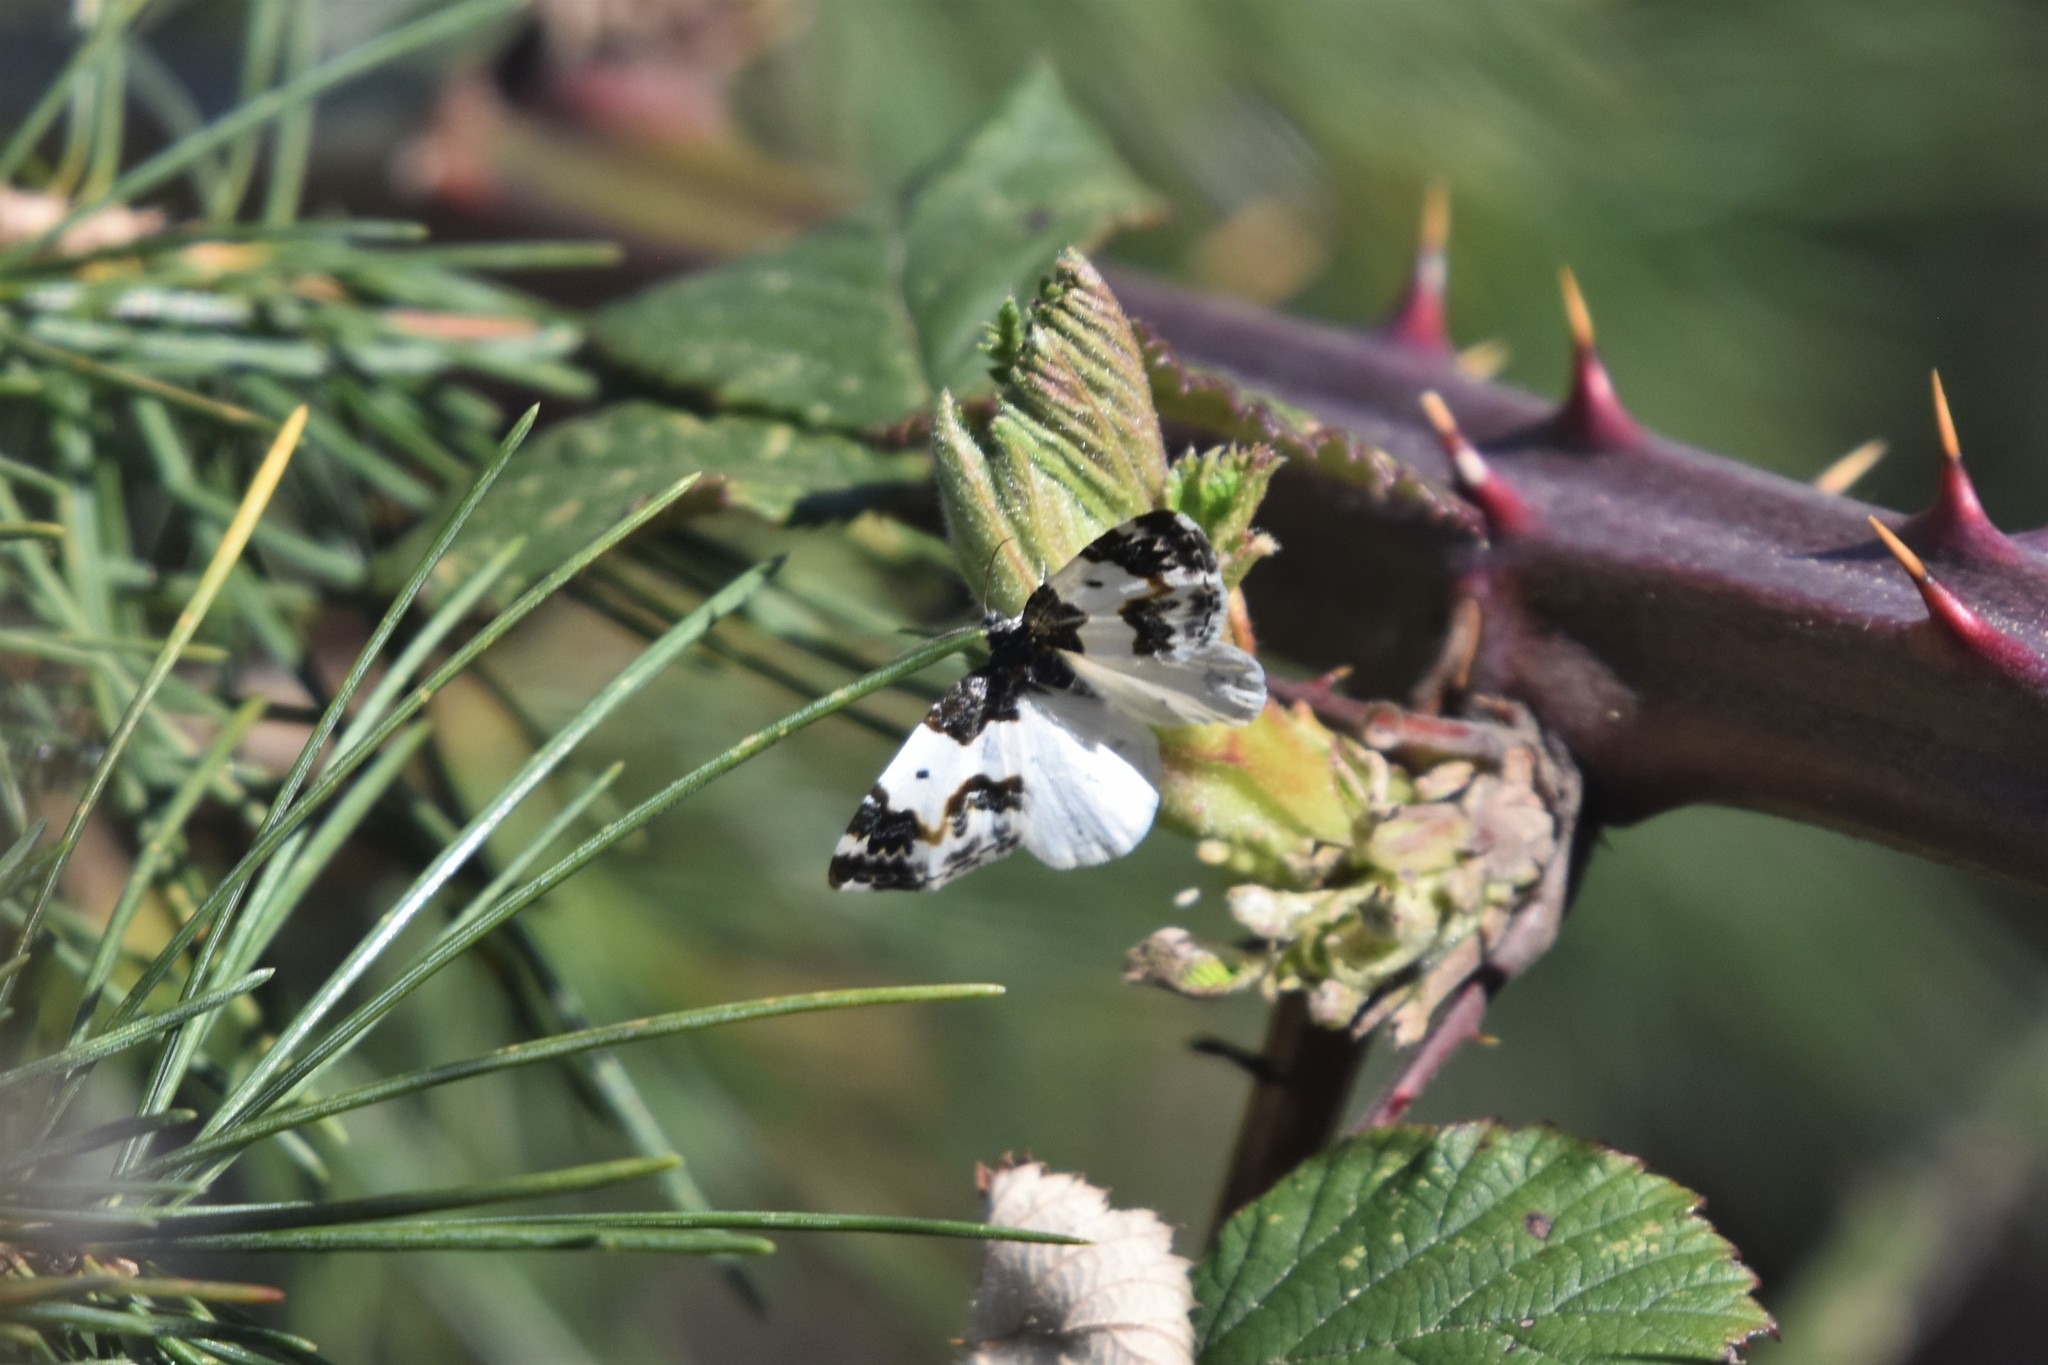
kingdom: Animalia
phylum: Arthropoda
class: Insecta
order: Lepidoptera
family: Geometridae
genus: Mesoleuca
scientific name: Mesoleuca gratulata
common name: Half-white carpet moth
